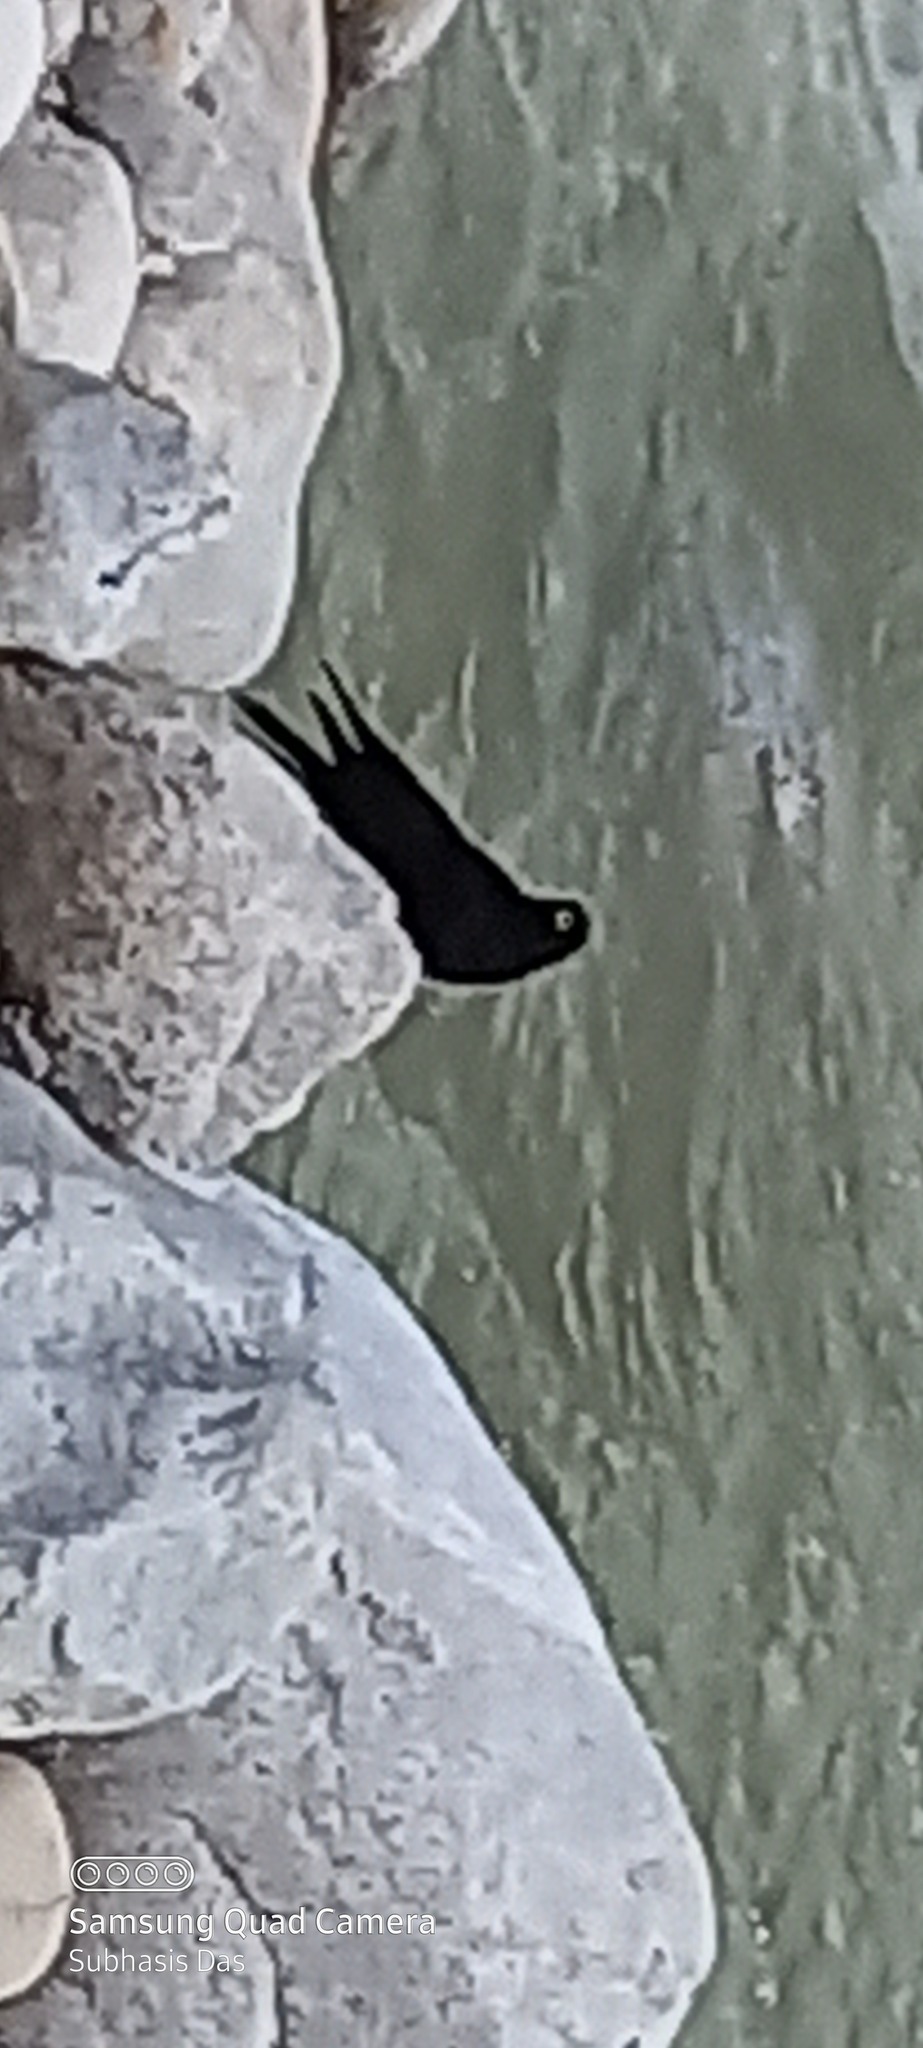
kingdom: Animalia
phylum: Chordata
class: Aves
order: Passeriformes
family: Corvidae
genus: Pyrrhocorax
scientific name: Pyrrhocorax pyrrhocorax
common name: Red-billed chough
